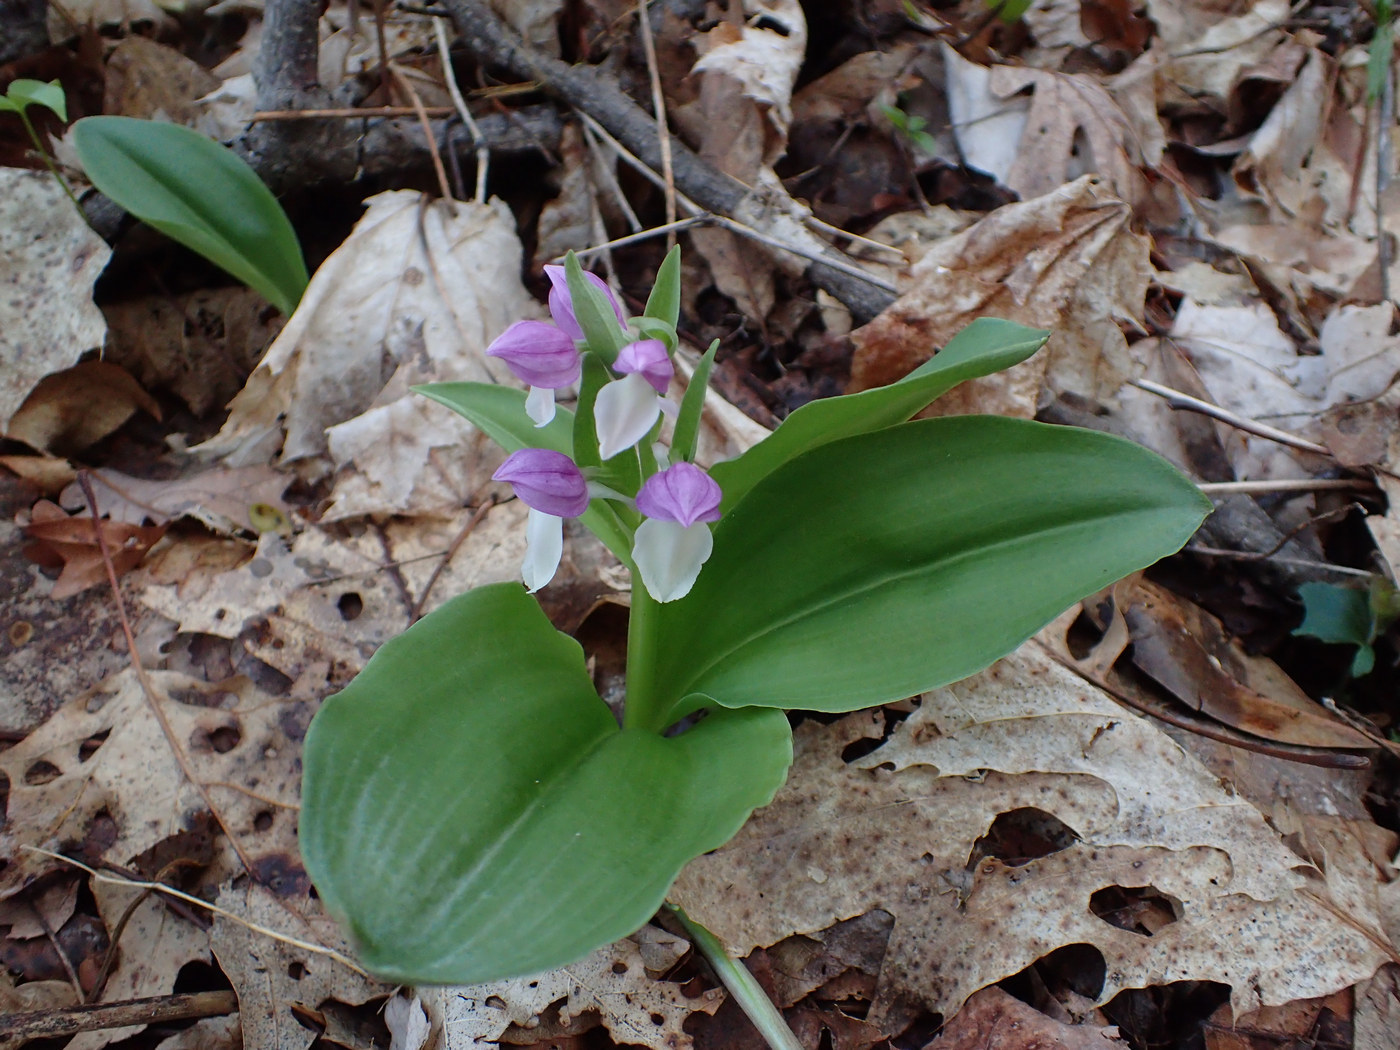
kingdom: Plantae
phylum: Tracheophyta
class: Liliopsida
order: Asparagales
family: Orchidaceae
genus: Galearis
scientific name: Galearis spectabilis
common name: Purple-hooded orchis
